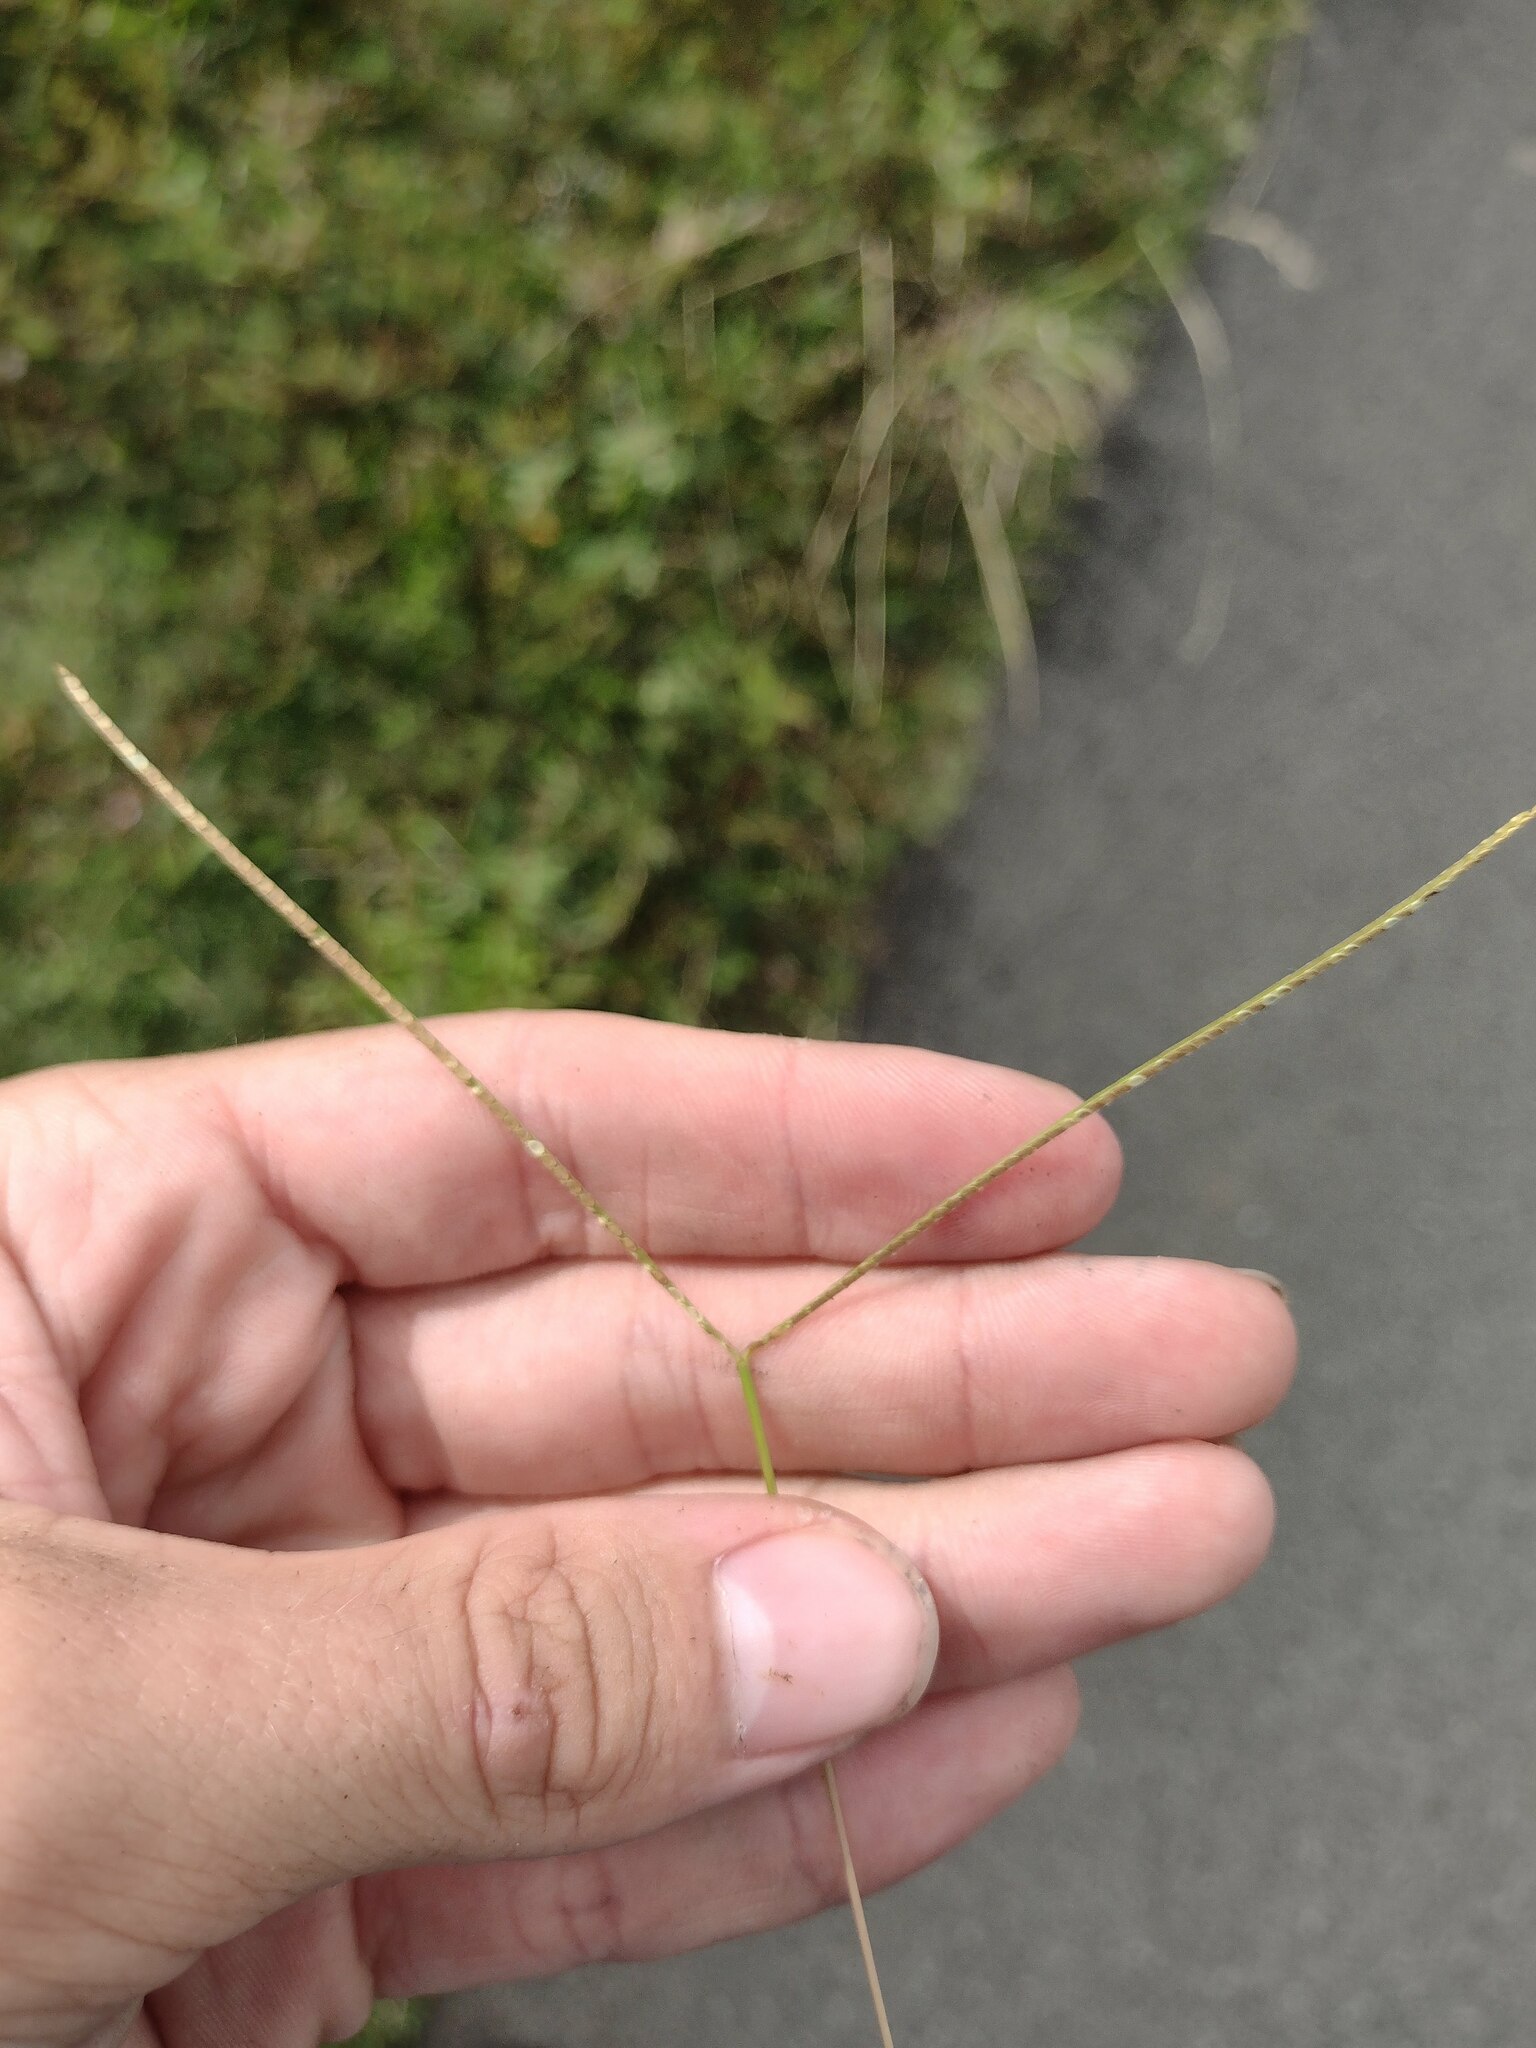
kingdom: Plantae
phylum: Tracheophyta
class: Liliopsida
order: Poales
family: Poaceae
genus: Paspalum
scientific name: Paspalum conjugatum
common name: Hilograss
